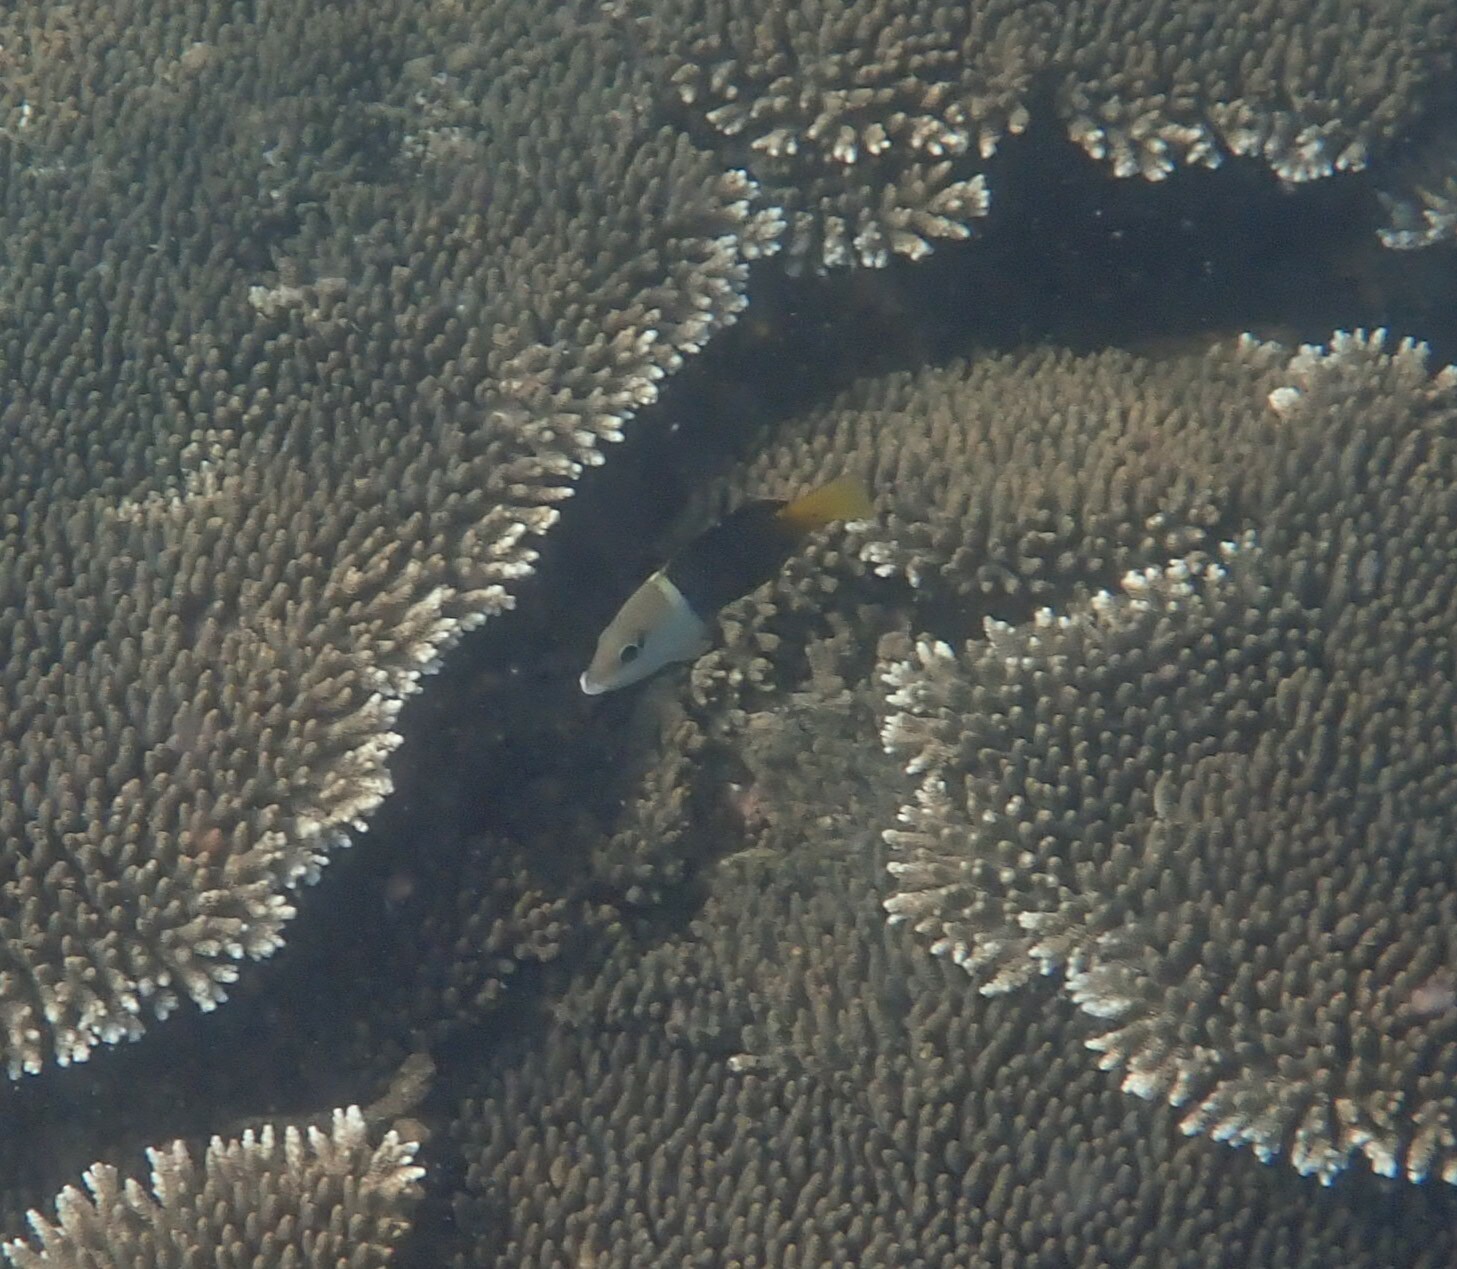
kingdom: Animalia
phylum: Chordata
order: Perciformes
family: Labridae
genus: Hemigymnus
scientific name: Hemigymnus melapterus
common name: Blackeye thicklip
